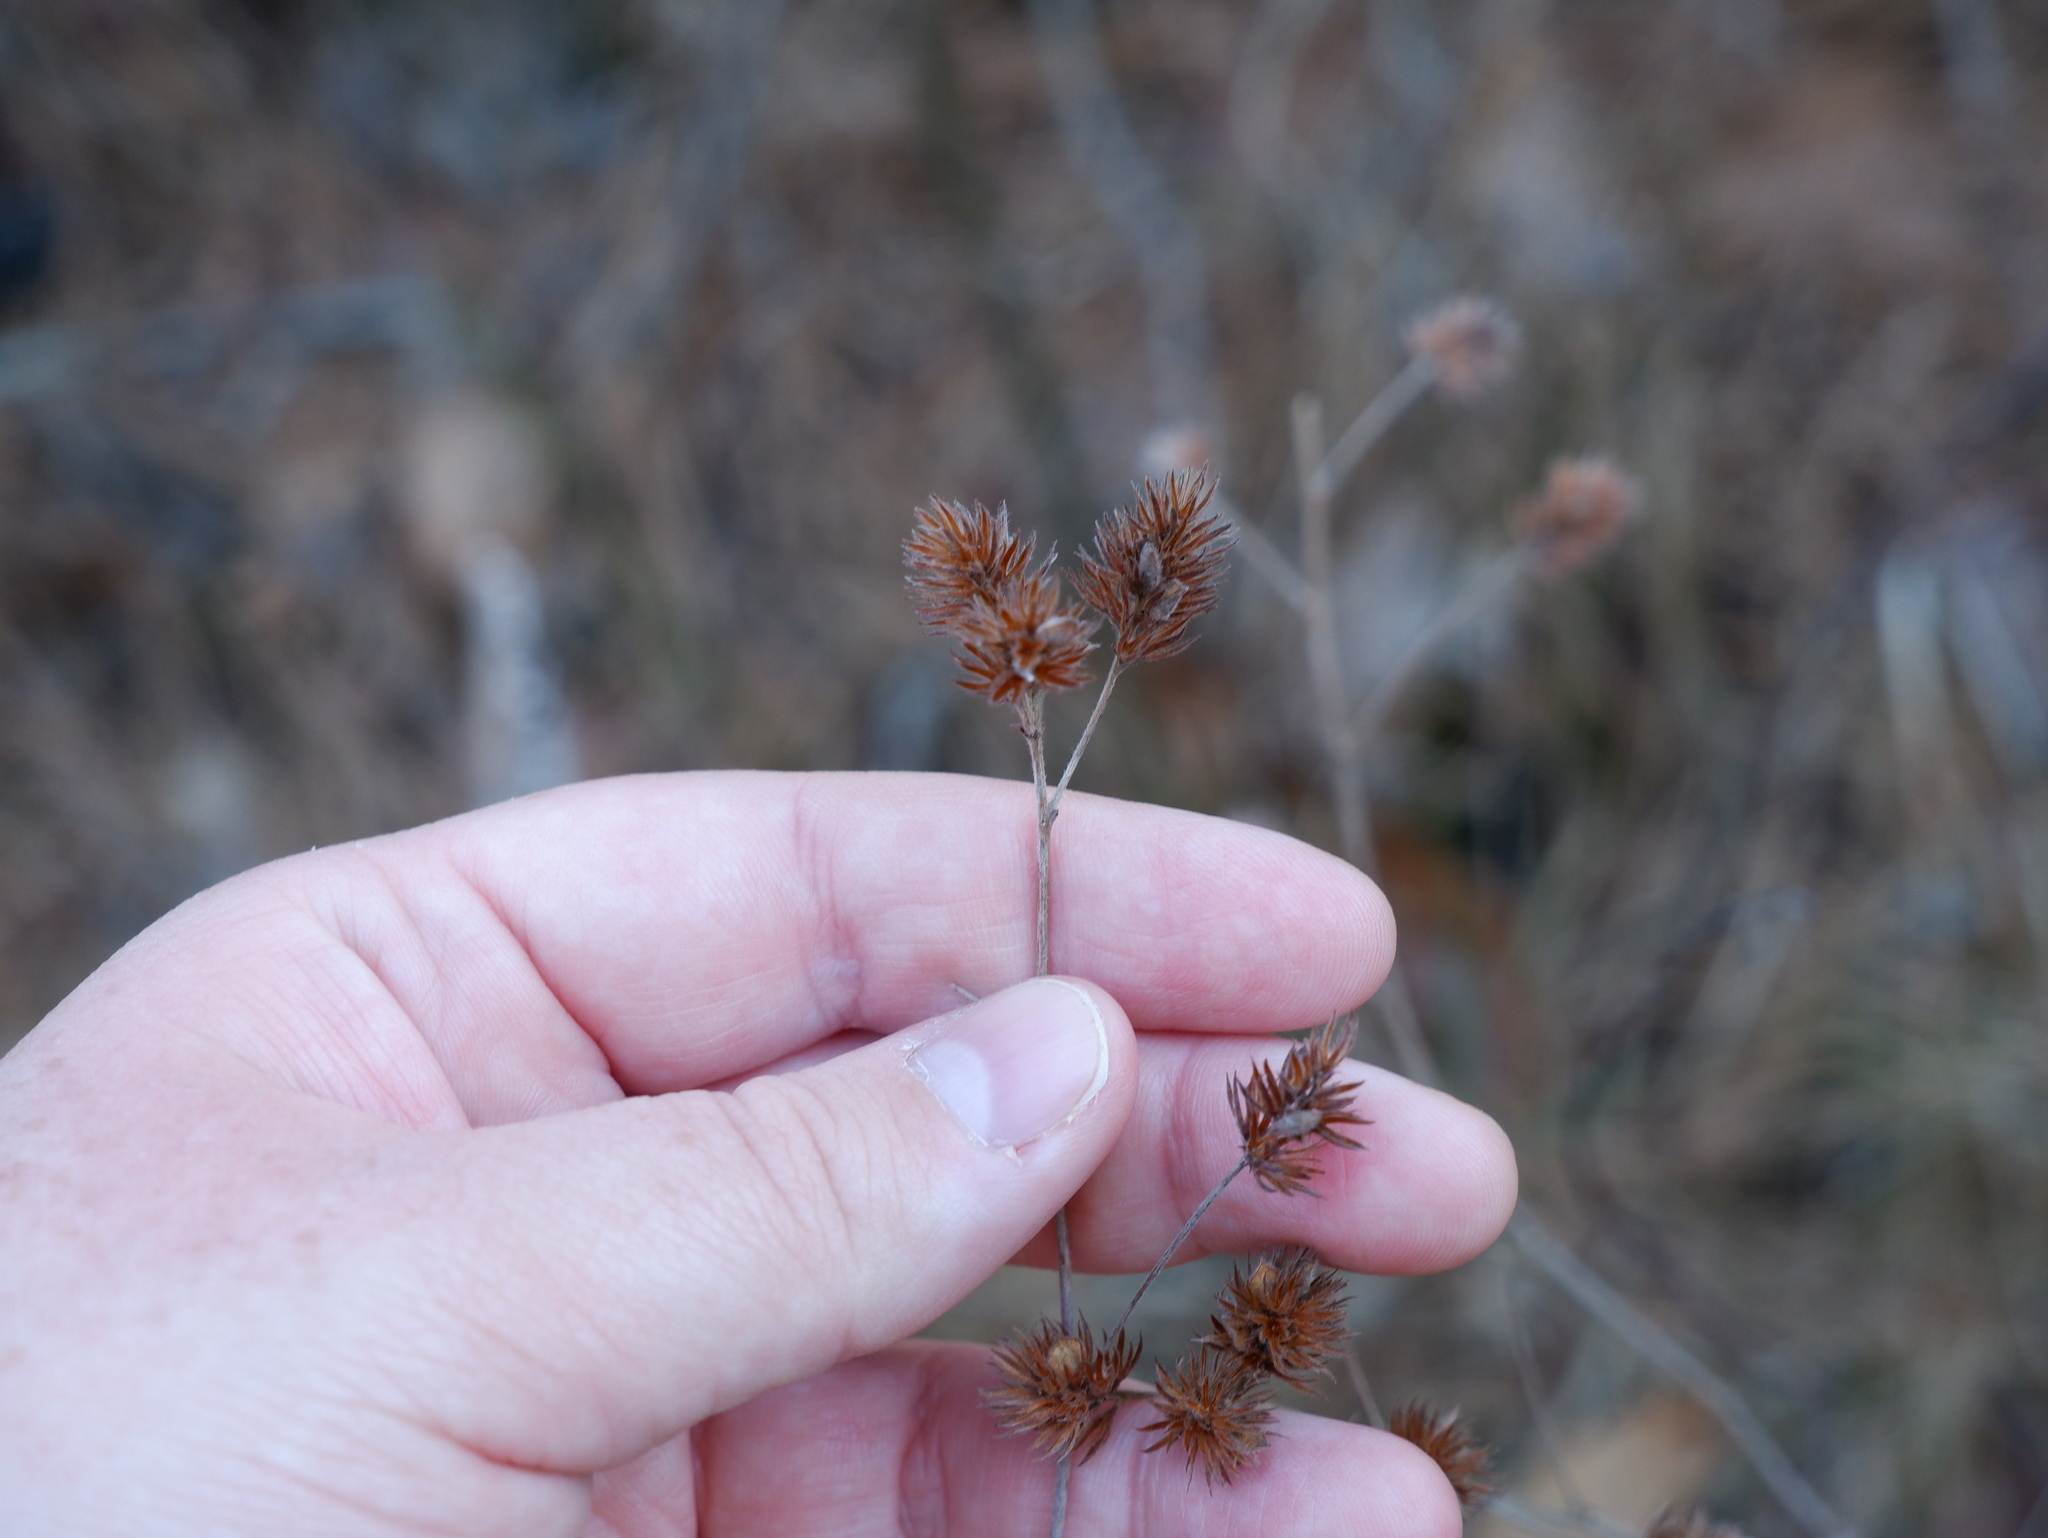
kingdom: Plantae
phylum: Tracheophyta
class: Magnoliopsida
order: Fabales
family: Fabaceae
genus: Lespedeza
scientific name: Lespedeza hirta
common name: Hairy lespedeza
